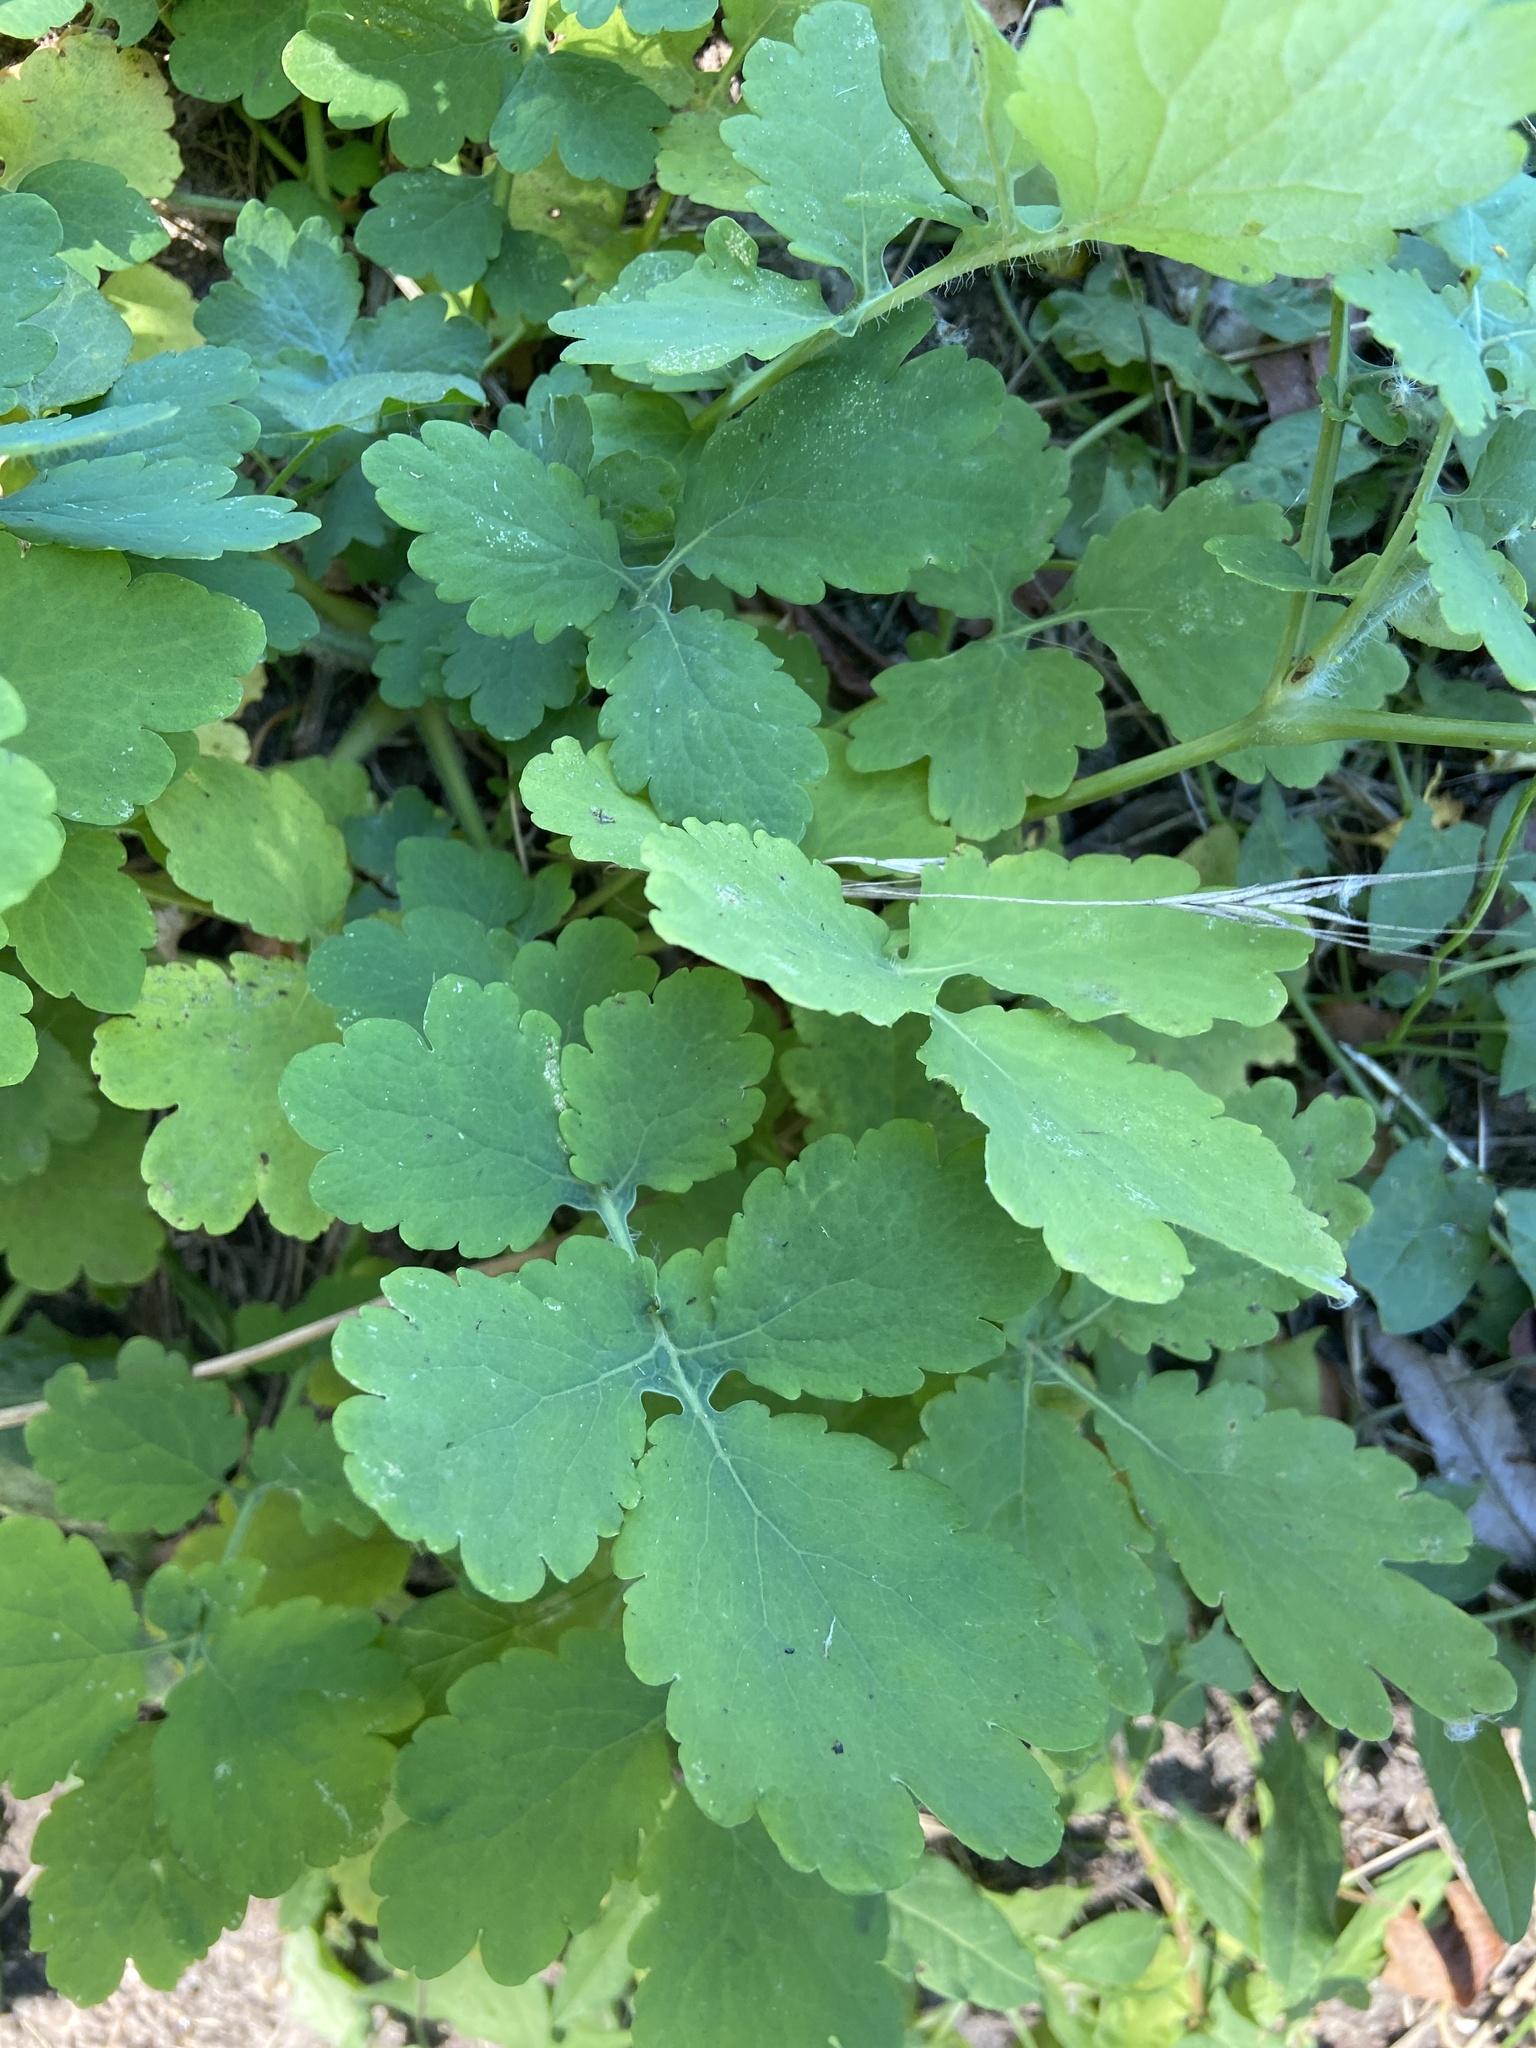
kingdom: Plantae
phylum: Tracheophyta
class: Magnoliopsida
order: Ranunculales
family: Papaveraceae
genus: Chelidonium
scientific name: Chelidonium majus
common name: Greater celandine
